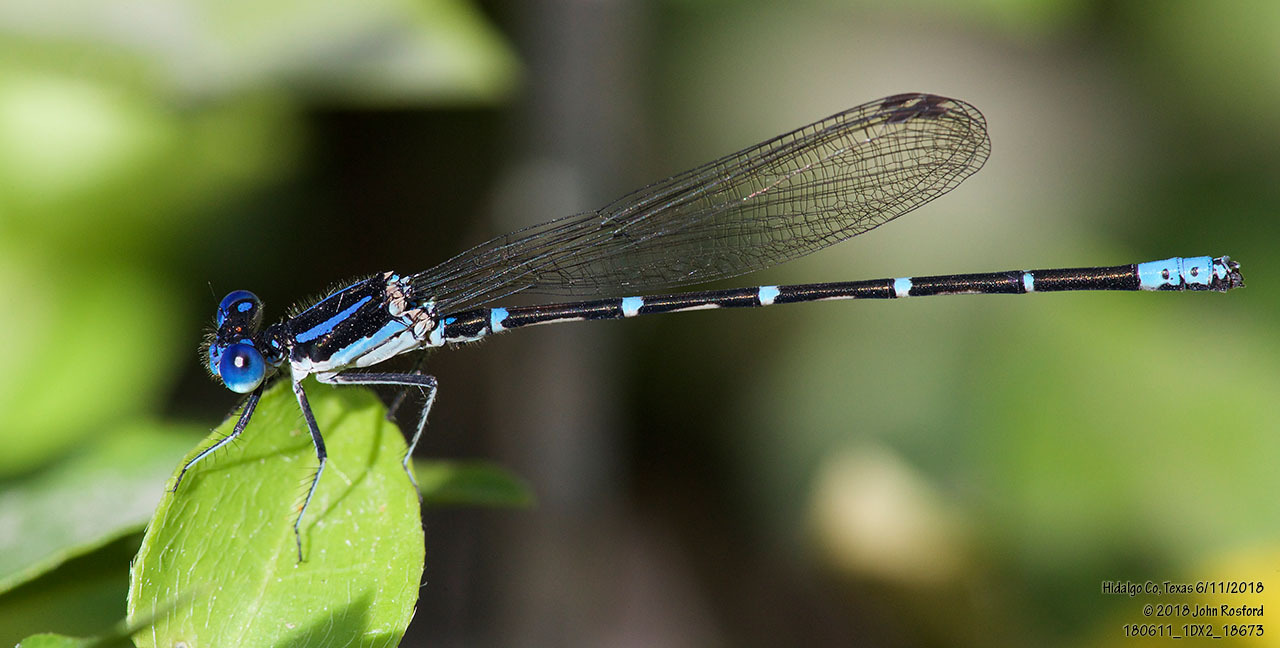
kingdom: Animalia
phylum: Arthropoda
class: Insecta
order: Odonata
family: Coenagrionidae
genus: Argia
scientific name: Argia sedula
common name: Blue-ringed dancer
